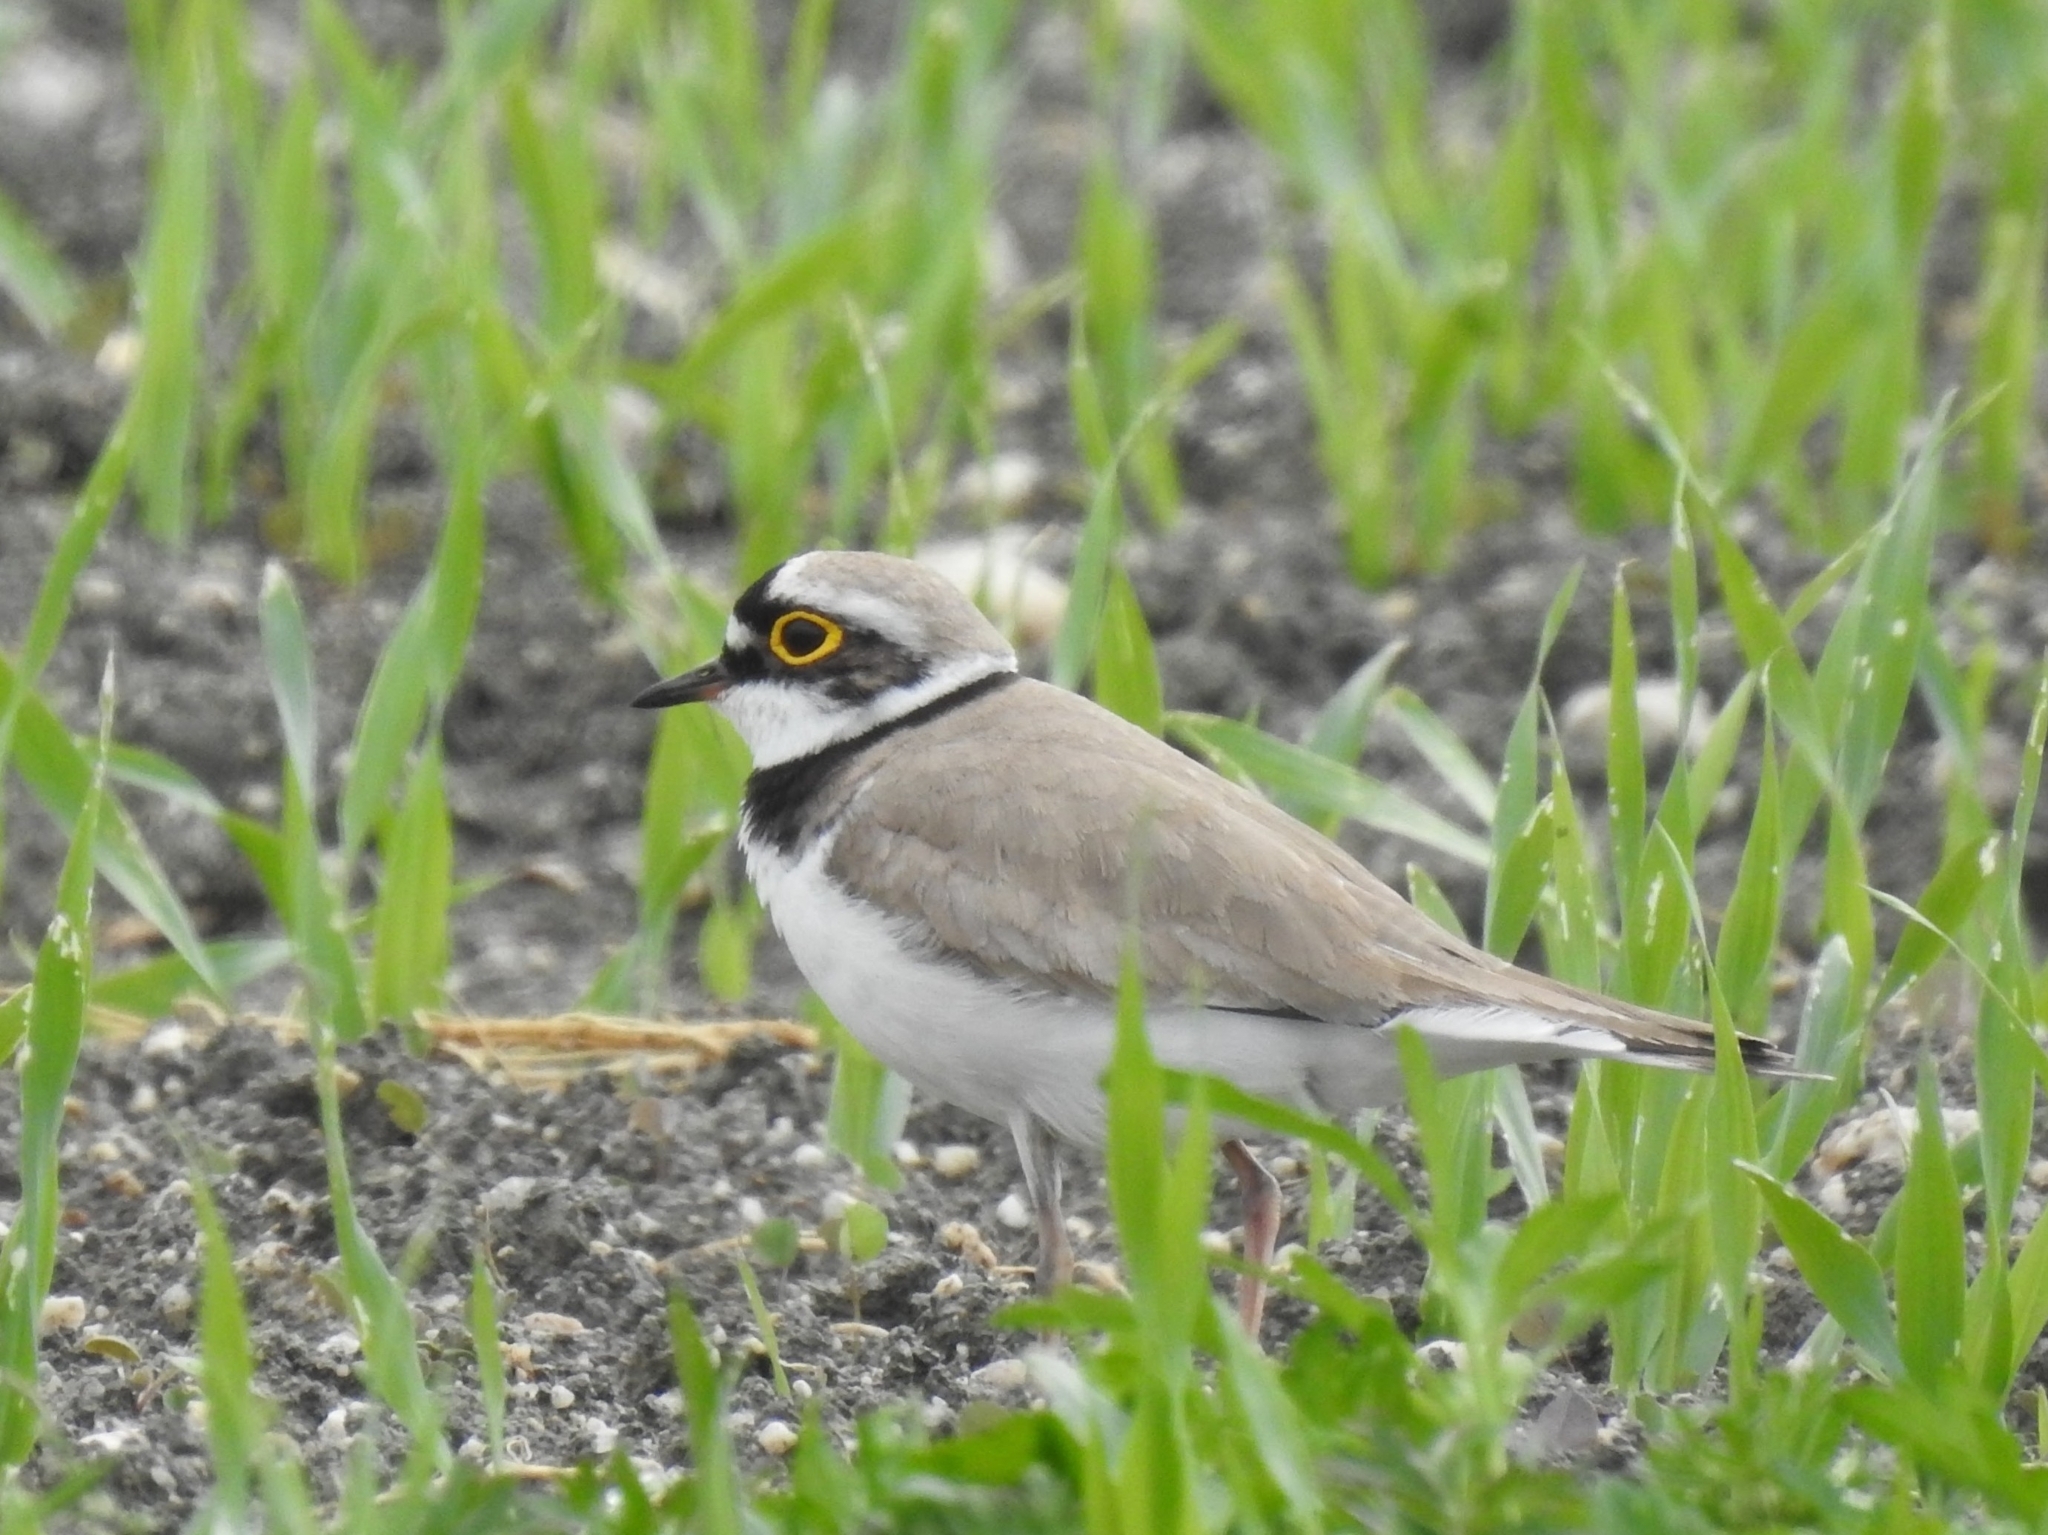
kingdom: Animalia
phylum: Chordata
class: Aves
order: Charadriiformes
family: Charadriidae
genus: Charadrius
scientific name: Charadrius dubius
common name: Little ringed plover
